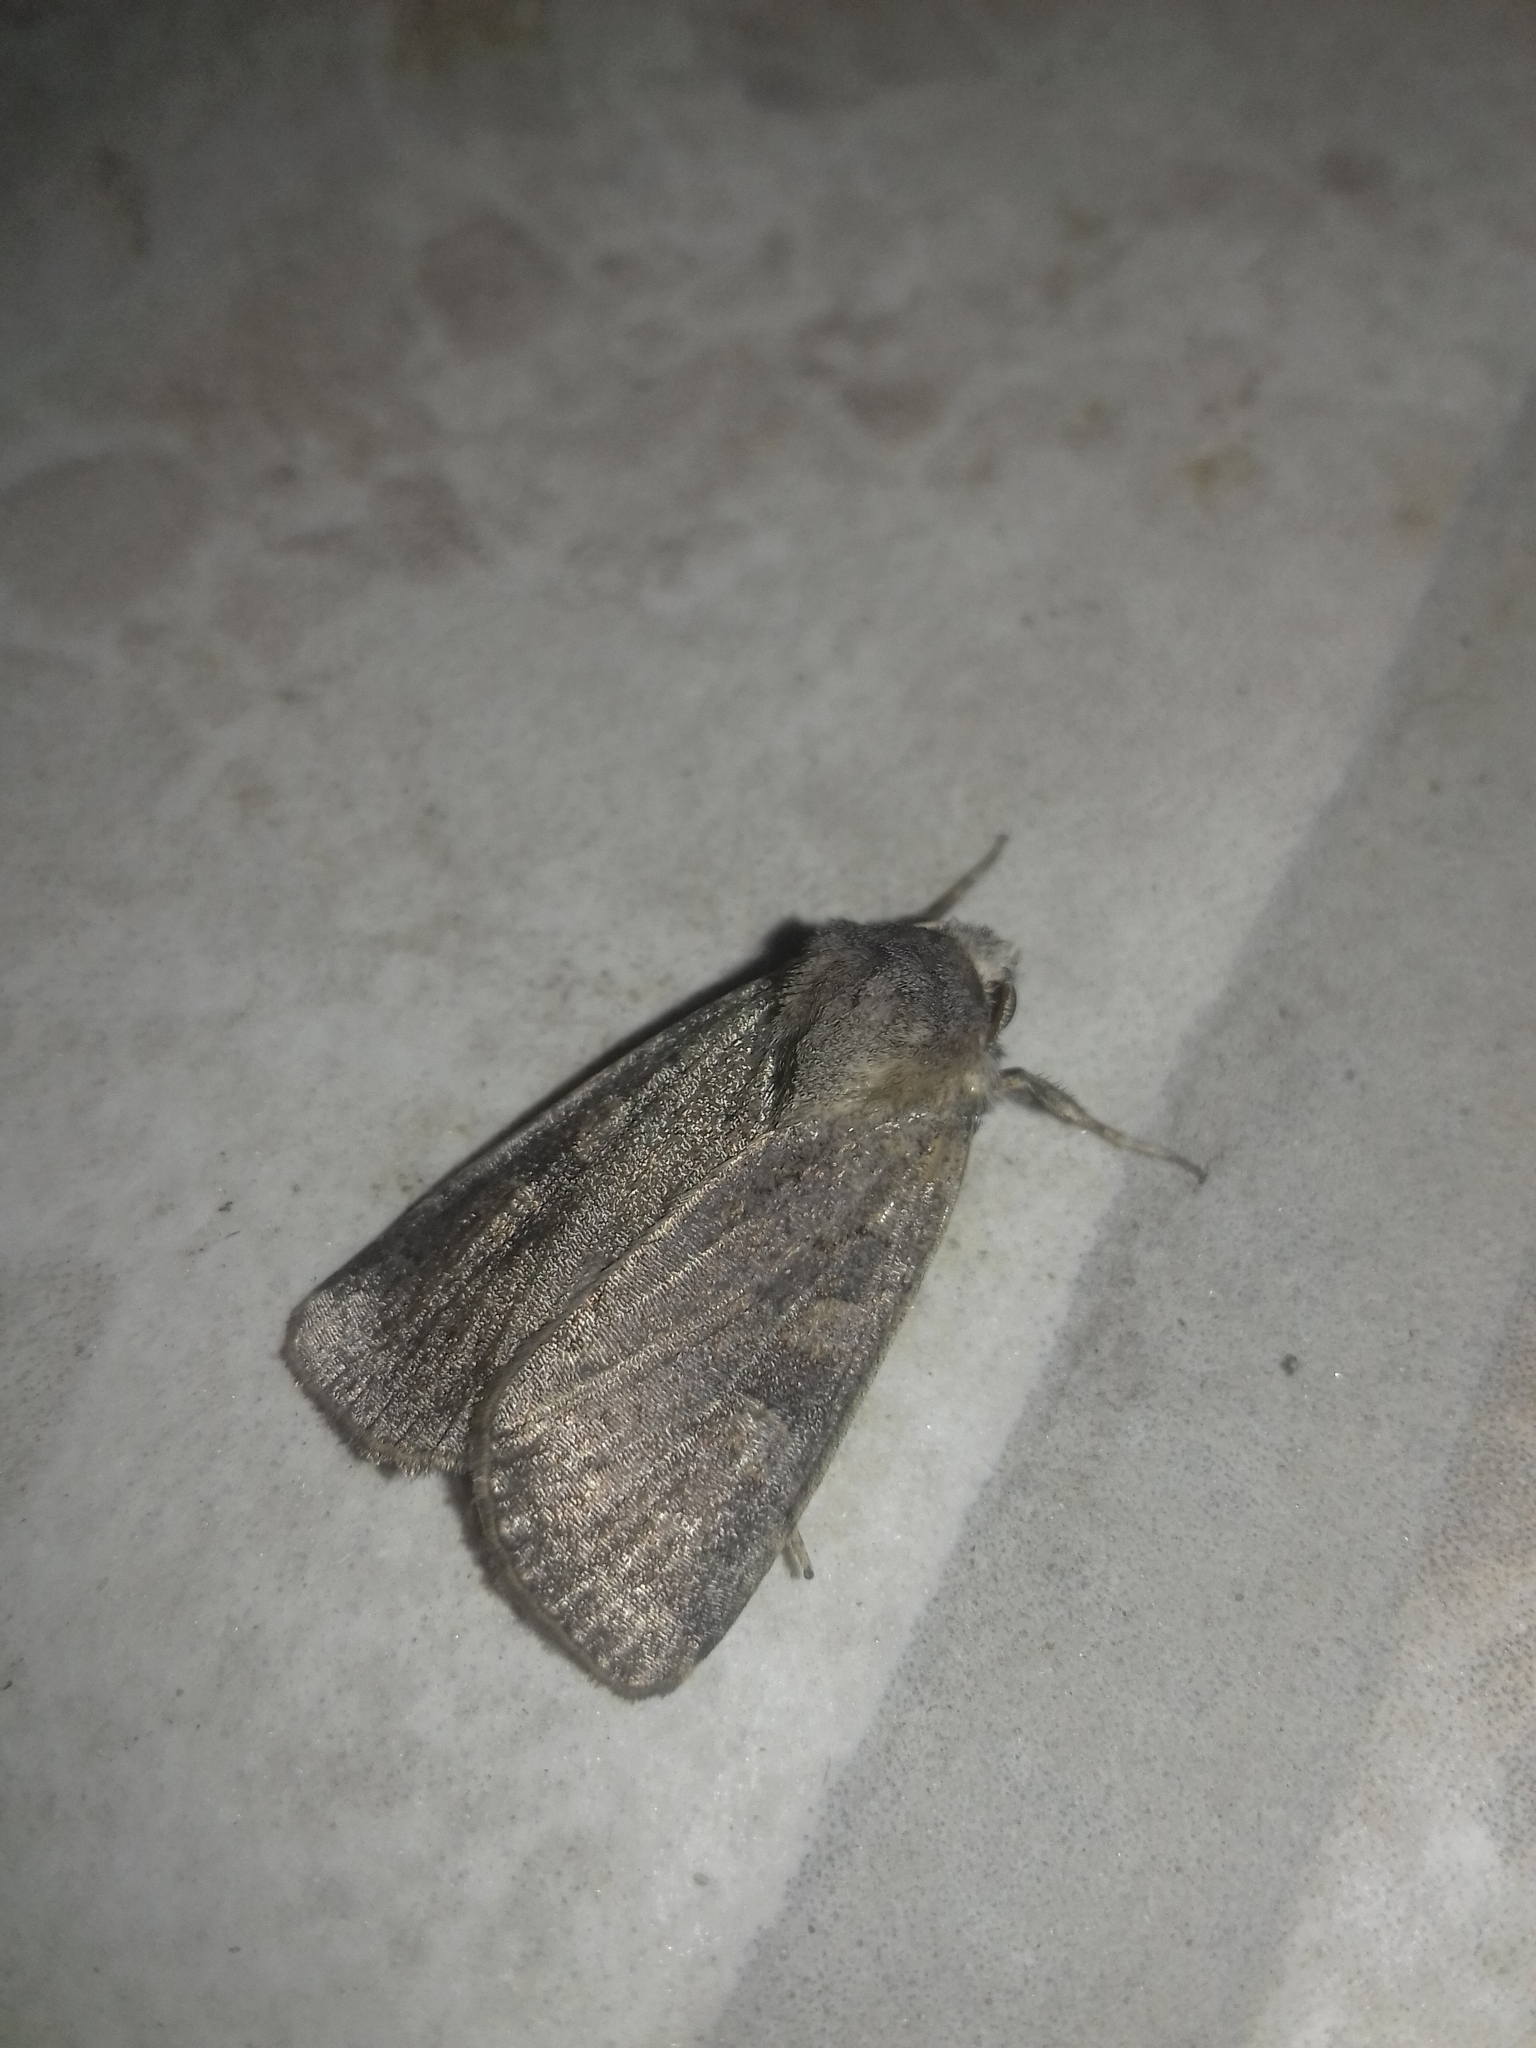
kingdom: Animalia
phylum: Arthropoda
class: Insecta
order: Lepidoptera
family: Noctuidae
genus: Xestia
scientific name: Xestia xanthographa
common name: Square-spot rustic
